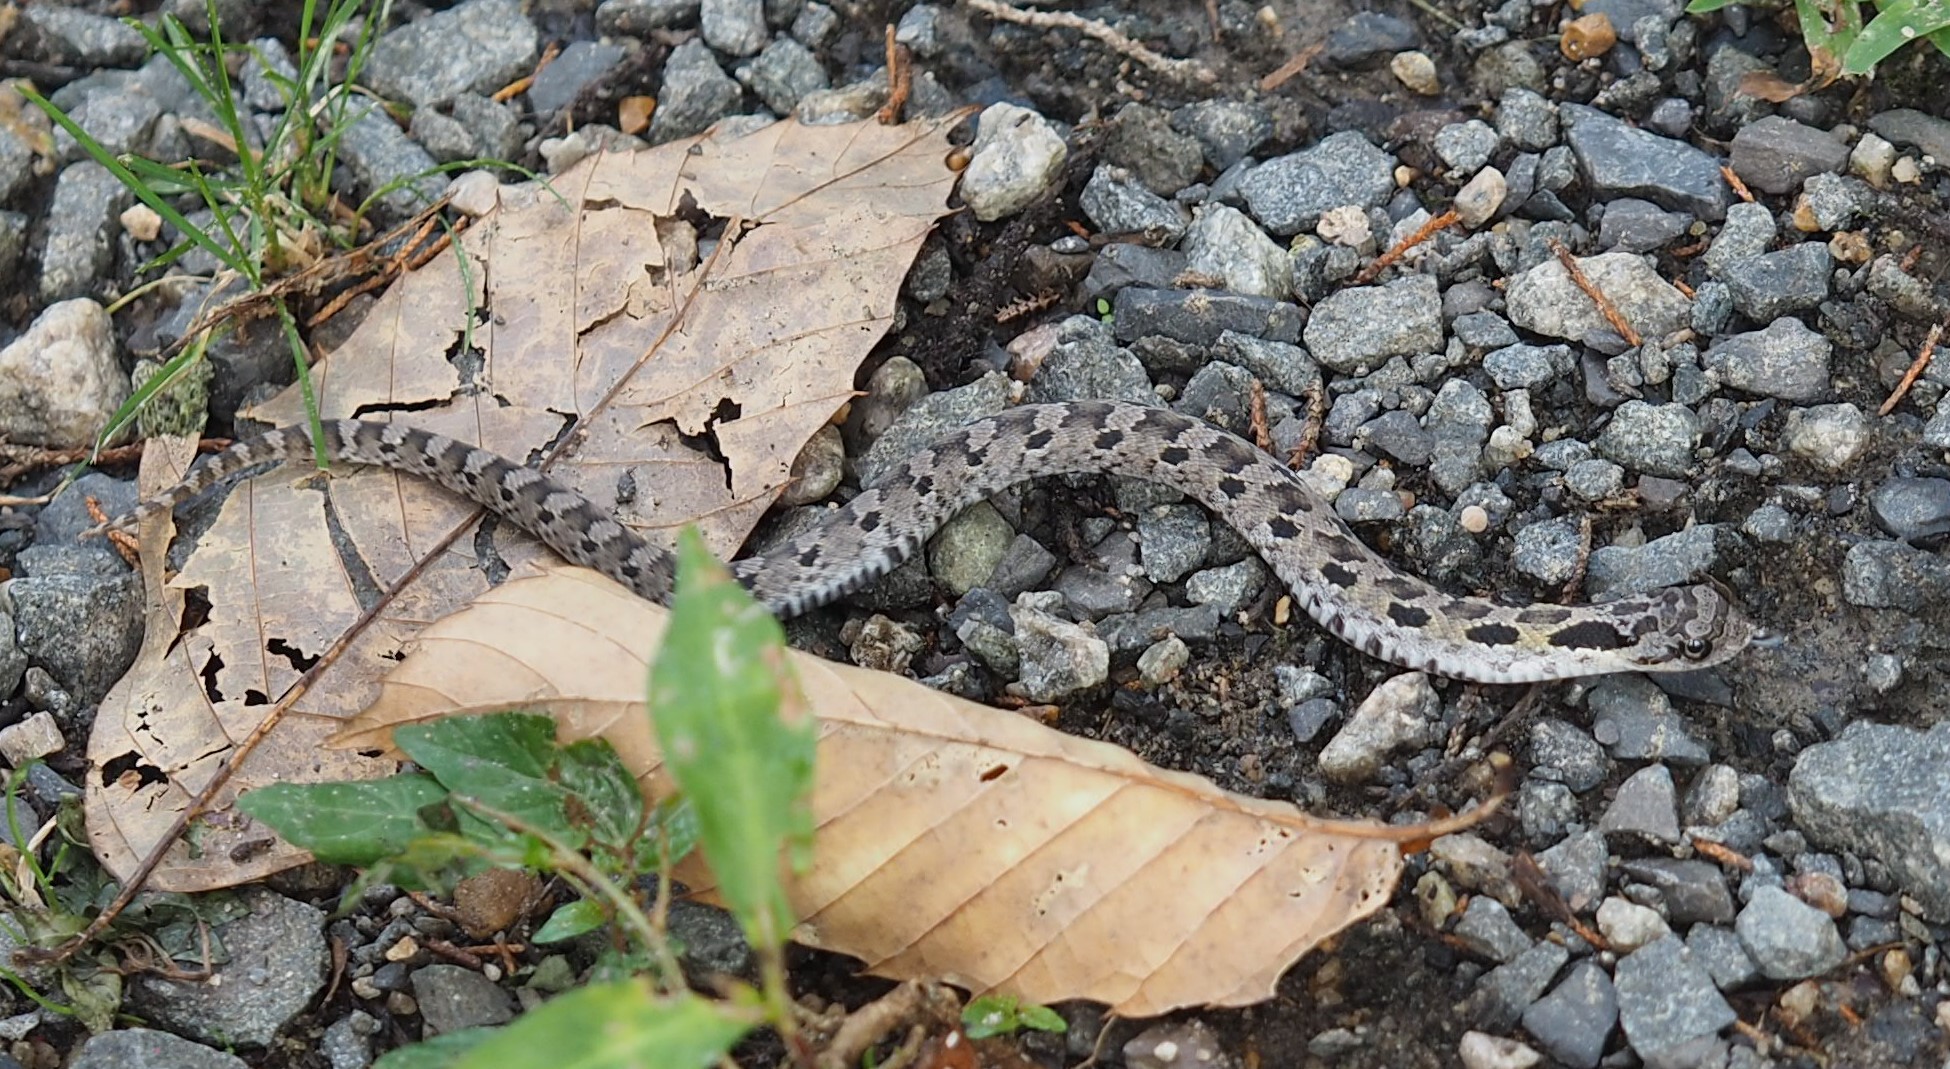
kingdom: Animalia
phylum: Chordata
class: Squamata
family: Colubridae
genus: Heterodon
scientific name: Heterodon platirhinos
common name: Eastern hognose snake
